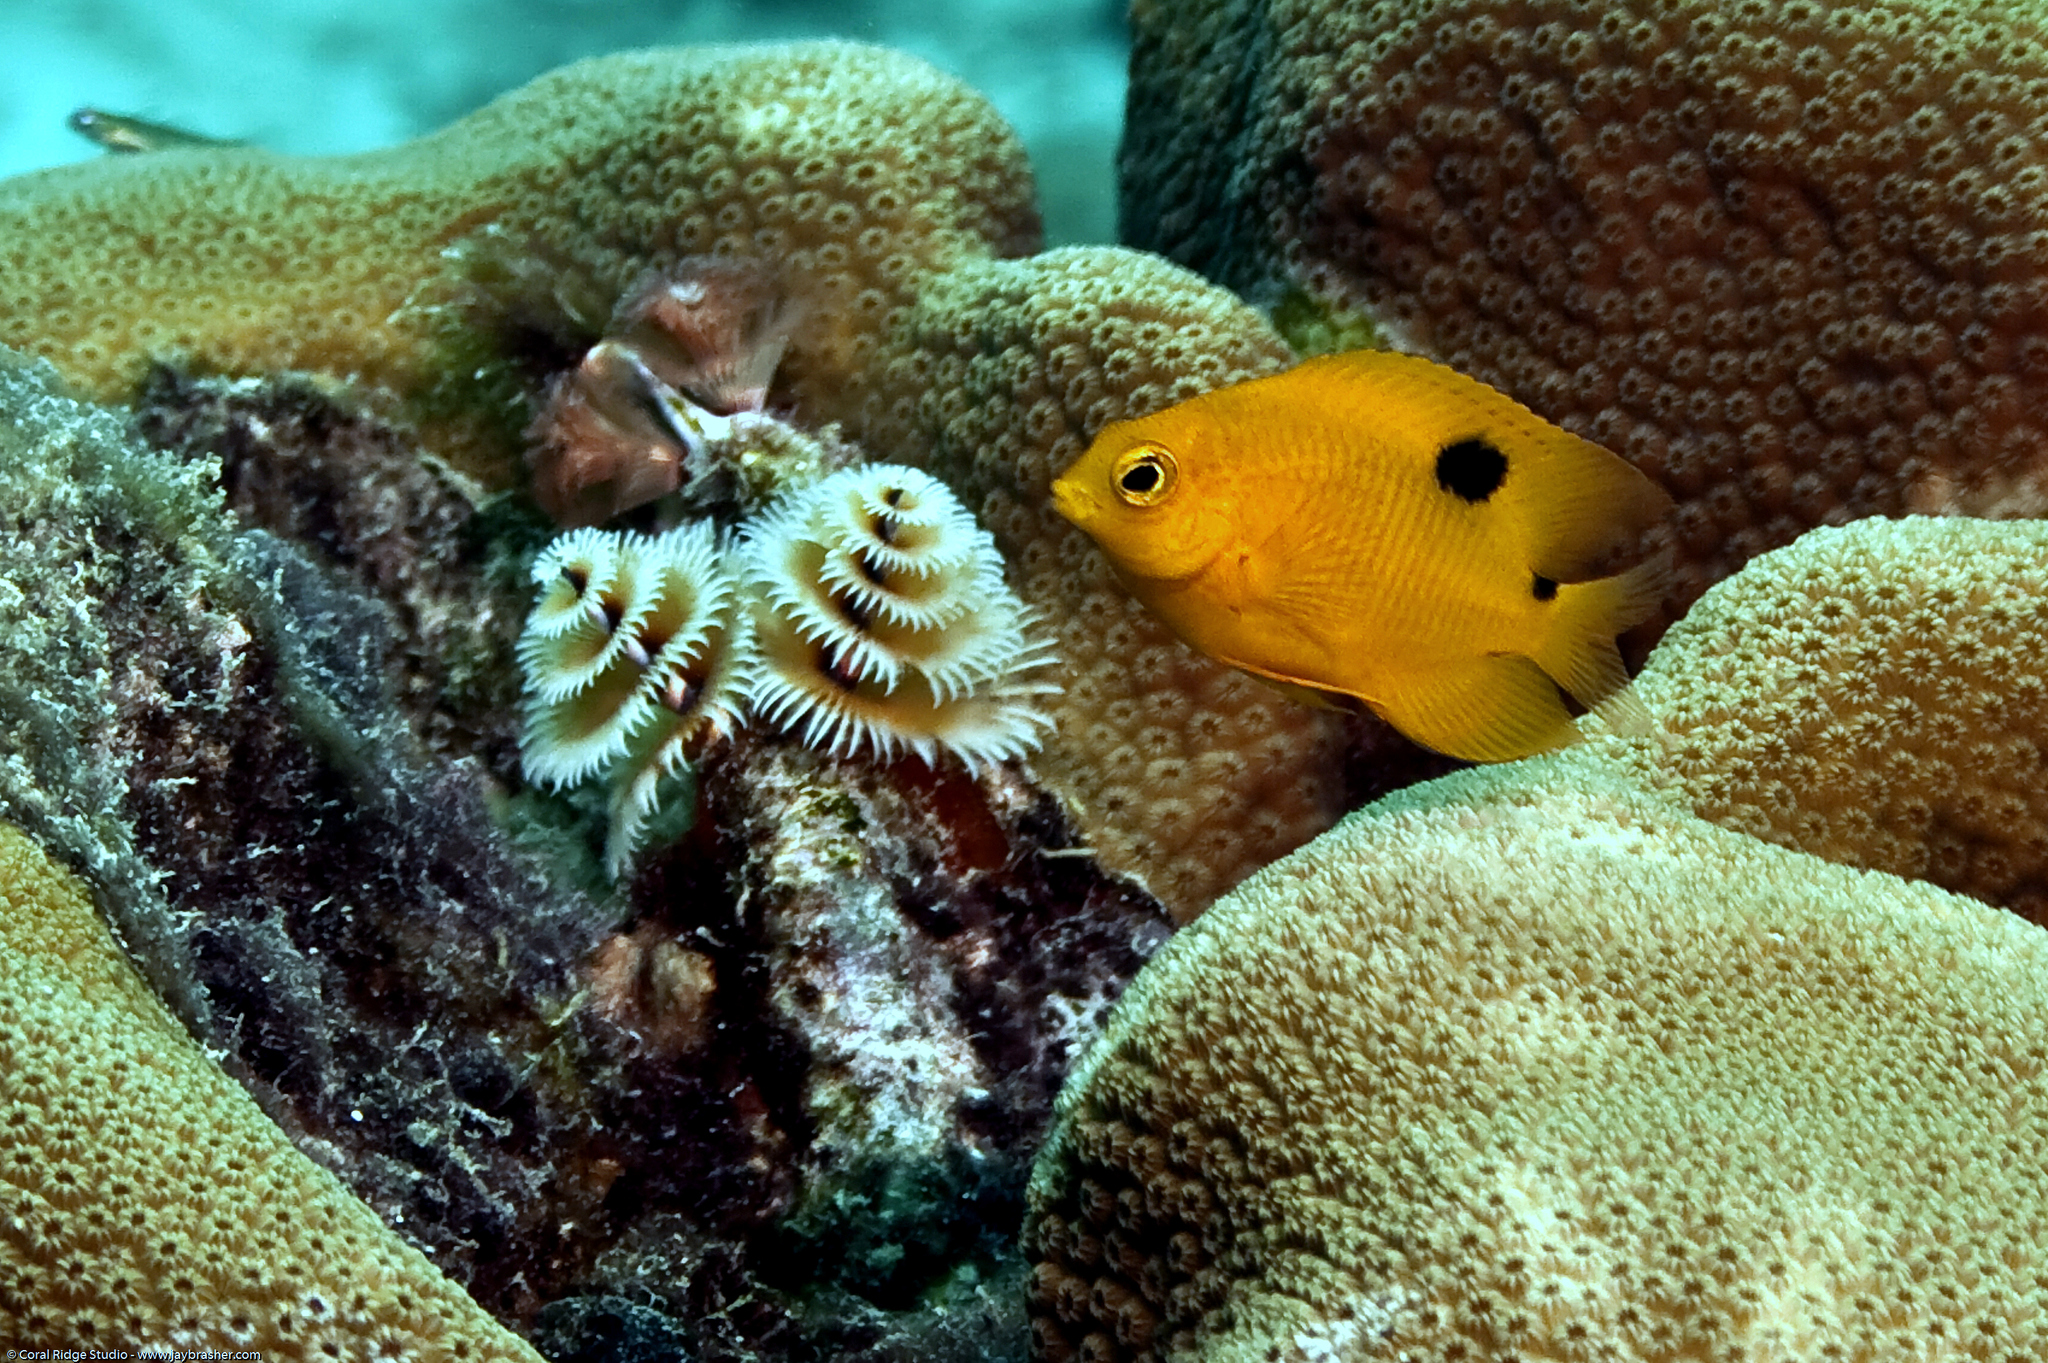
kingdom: Animalia
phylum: Chordata
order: Perciformes
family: Pomacentridae
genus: Stegastes
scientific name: Stegastes planifrons
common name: Threespot damselfish
